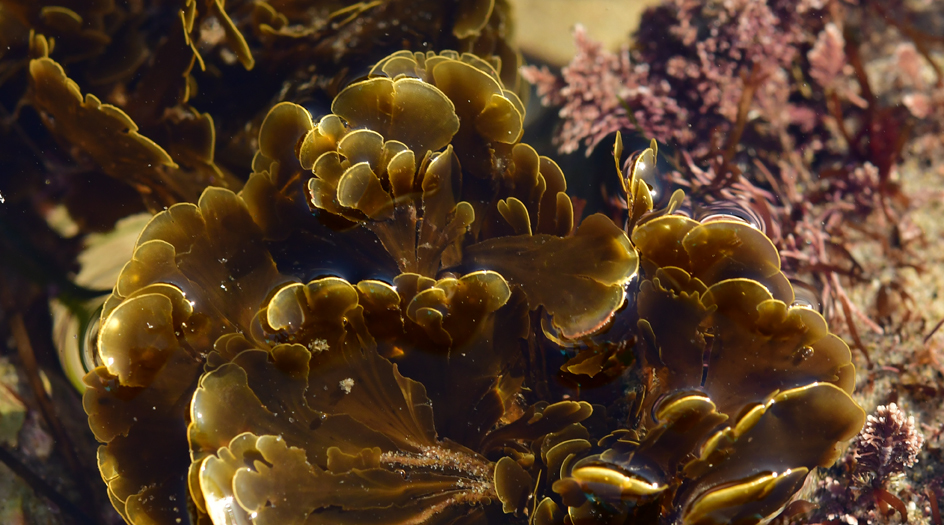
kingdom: Chromista
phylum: Ochrophyta
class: Phaeophyceae
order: Dictyotales
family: Dictyotaceae
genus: Zonaria
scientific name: Zonaria farlowii
